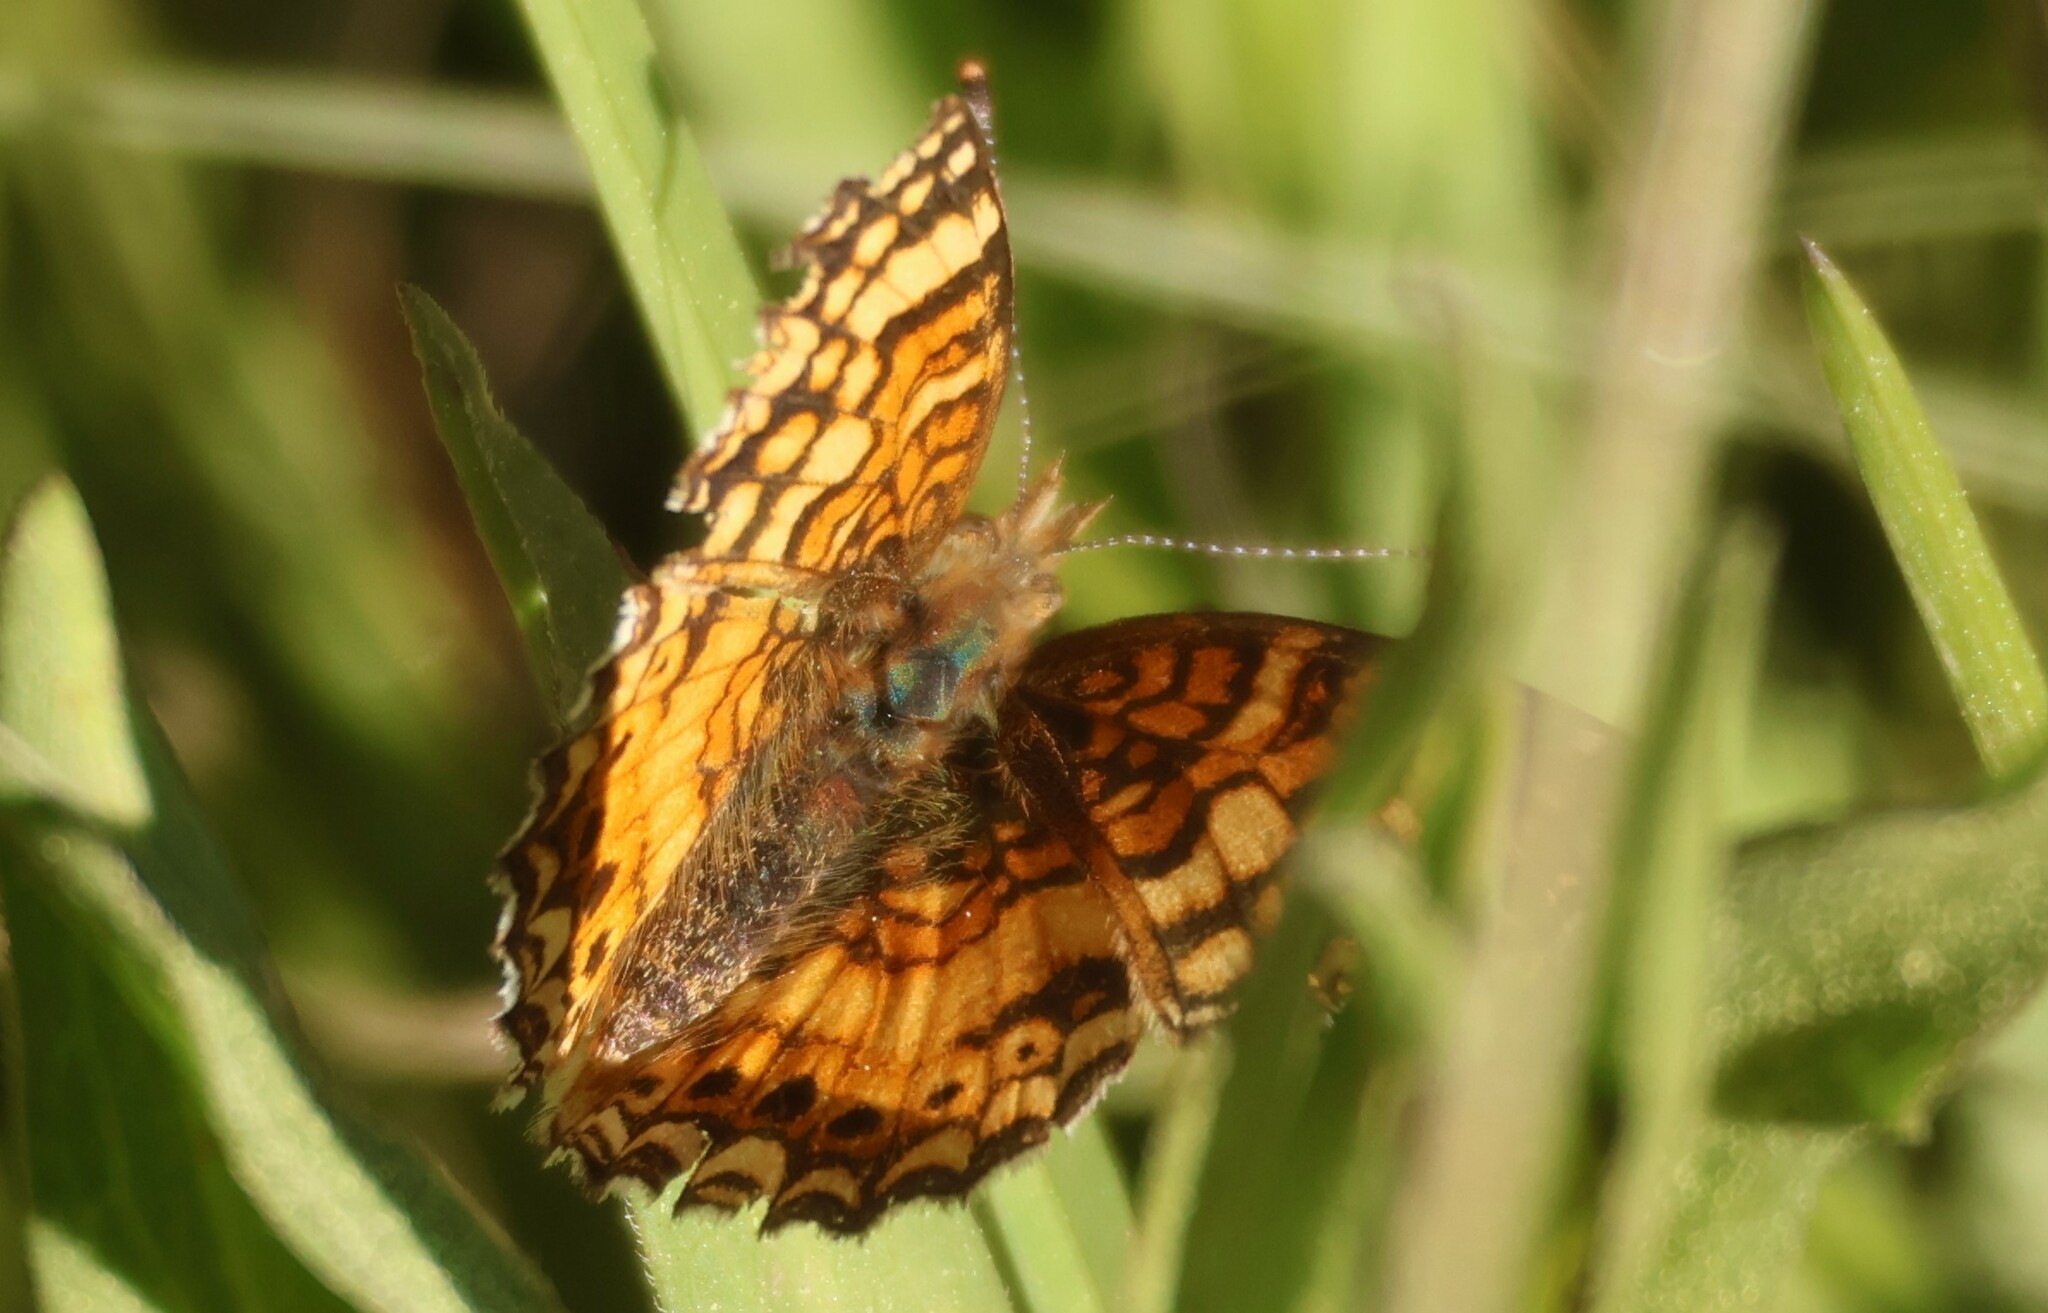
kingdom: Animalia
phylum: Arthropoda
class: Insecta
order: Lepidoptera
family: Nymphalidae
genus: Eresia
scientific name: Eresia aveyrona
